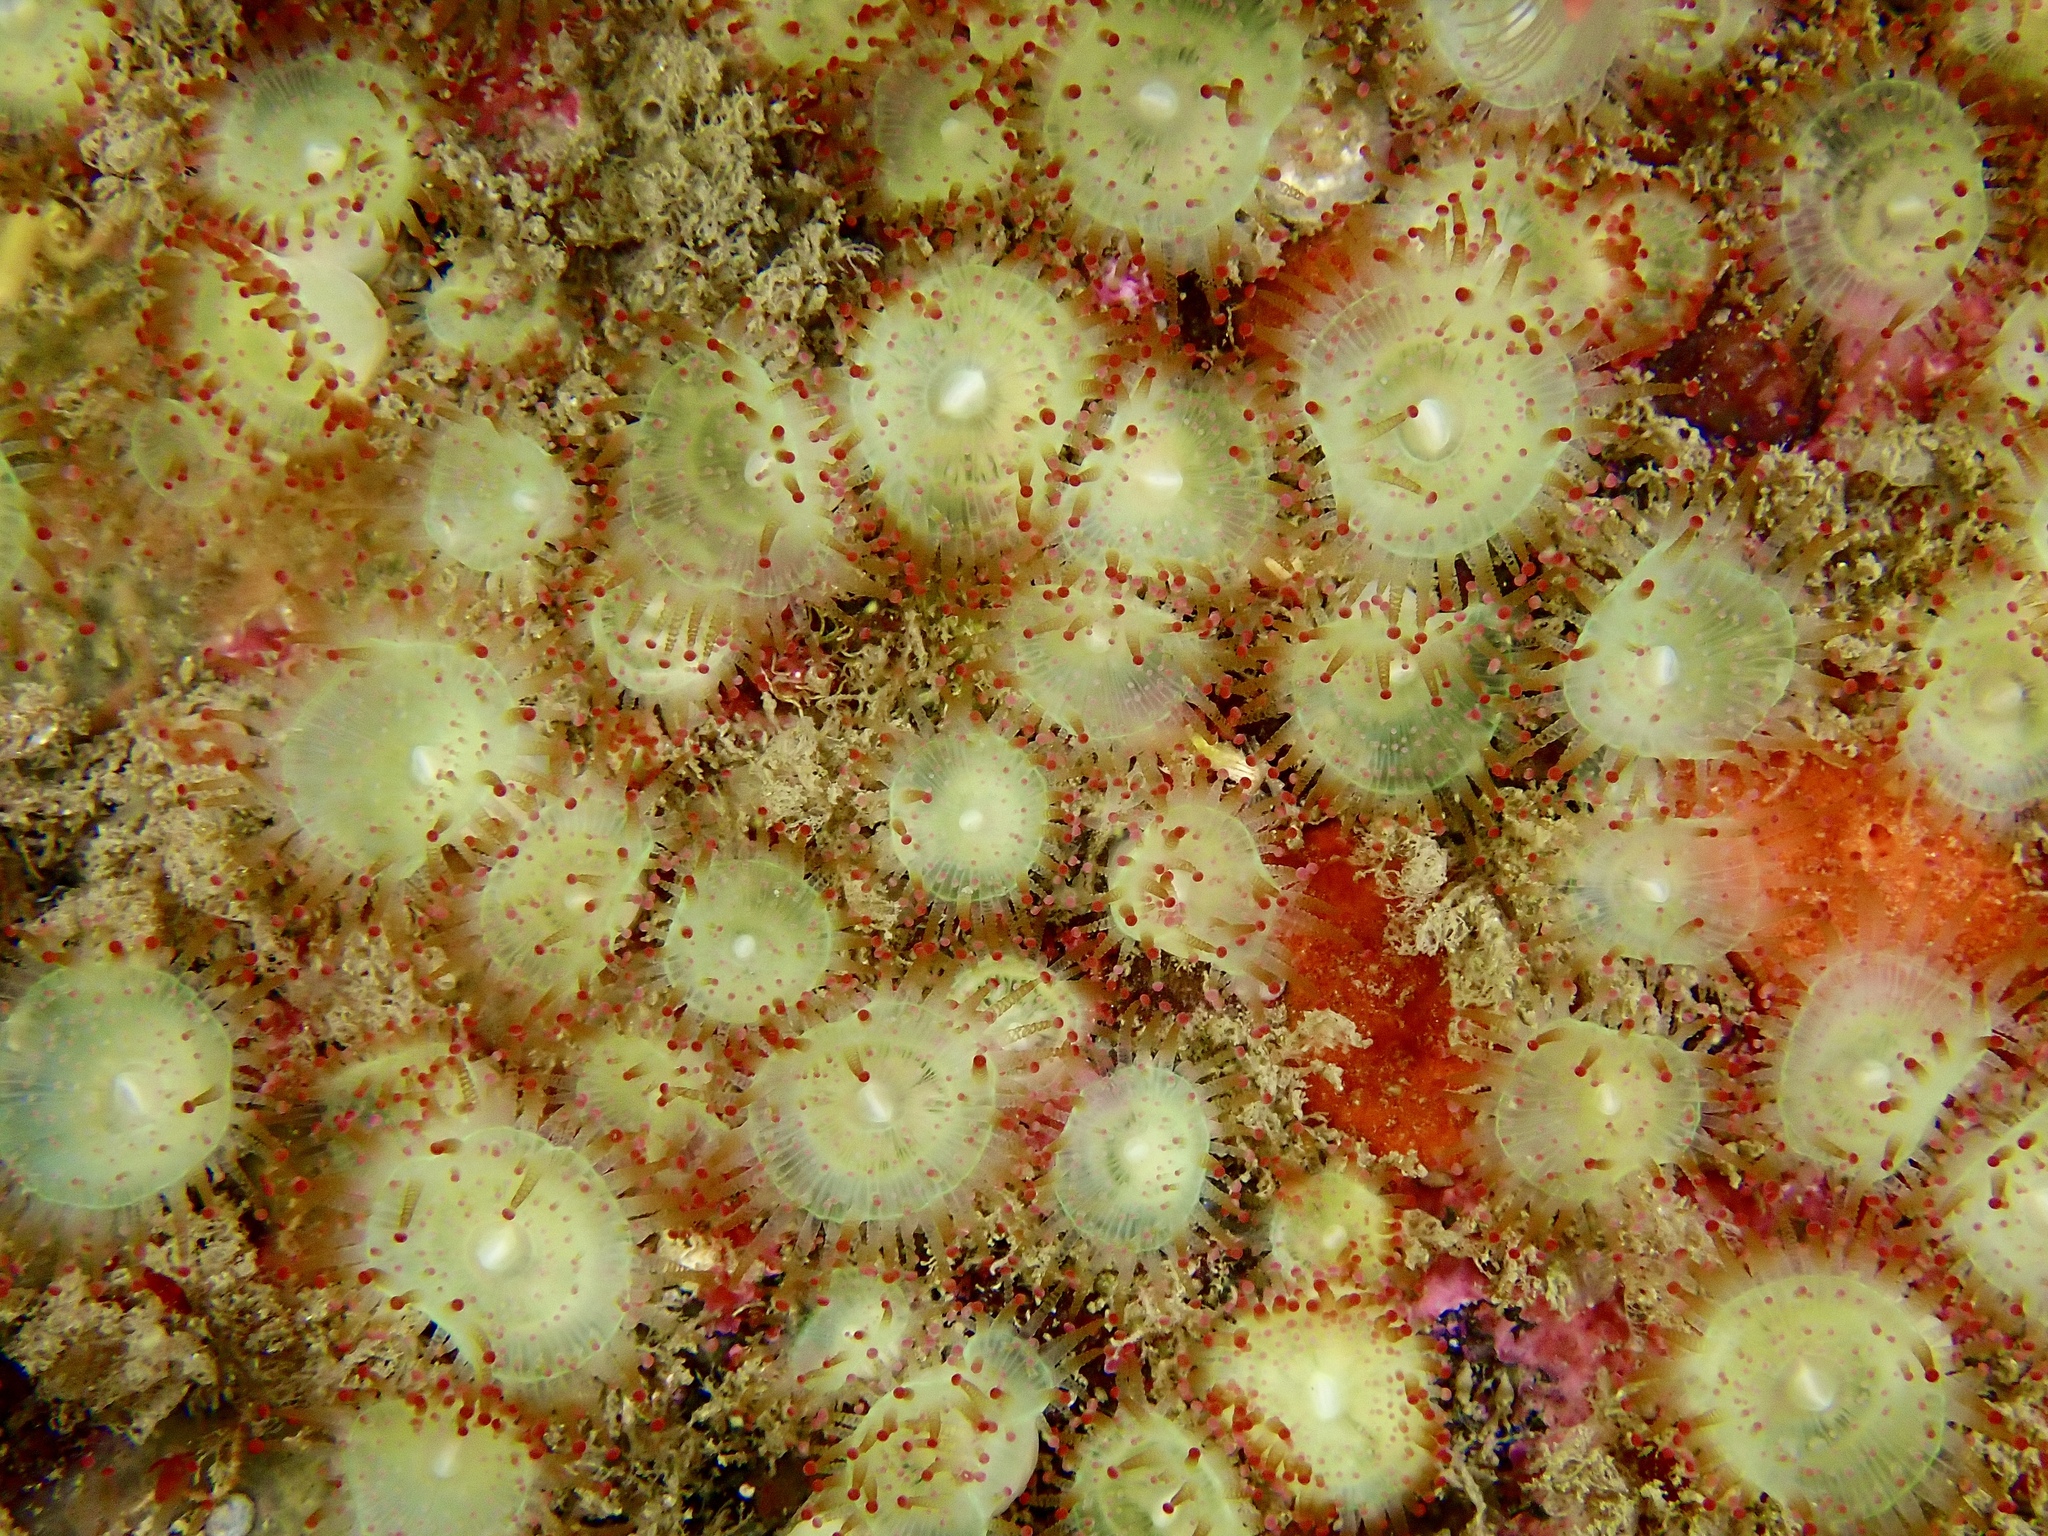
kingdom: Animalia
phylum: Cnidaria
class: Anthozoa
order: Corallimorpharia
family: Corallimorphidae
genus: Corynactis
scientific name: Corynactis viridis
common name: Jewel anemone
